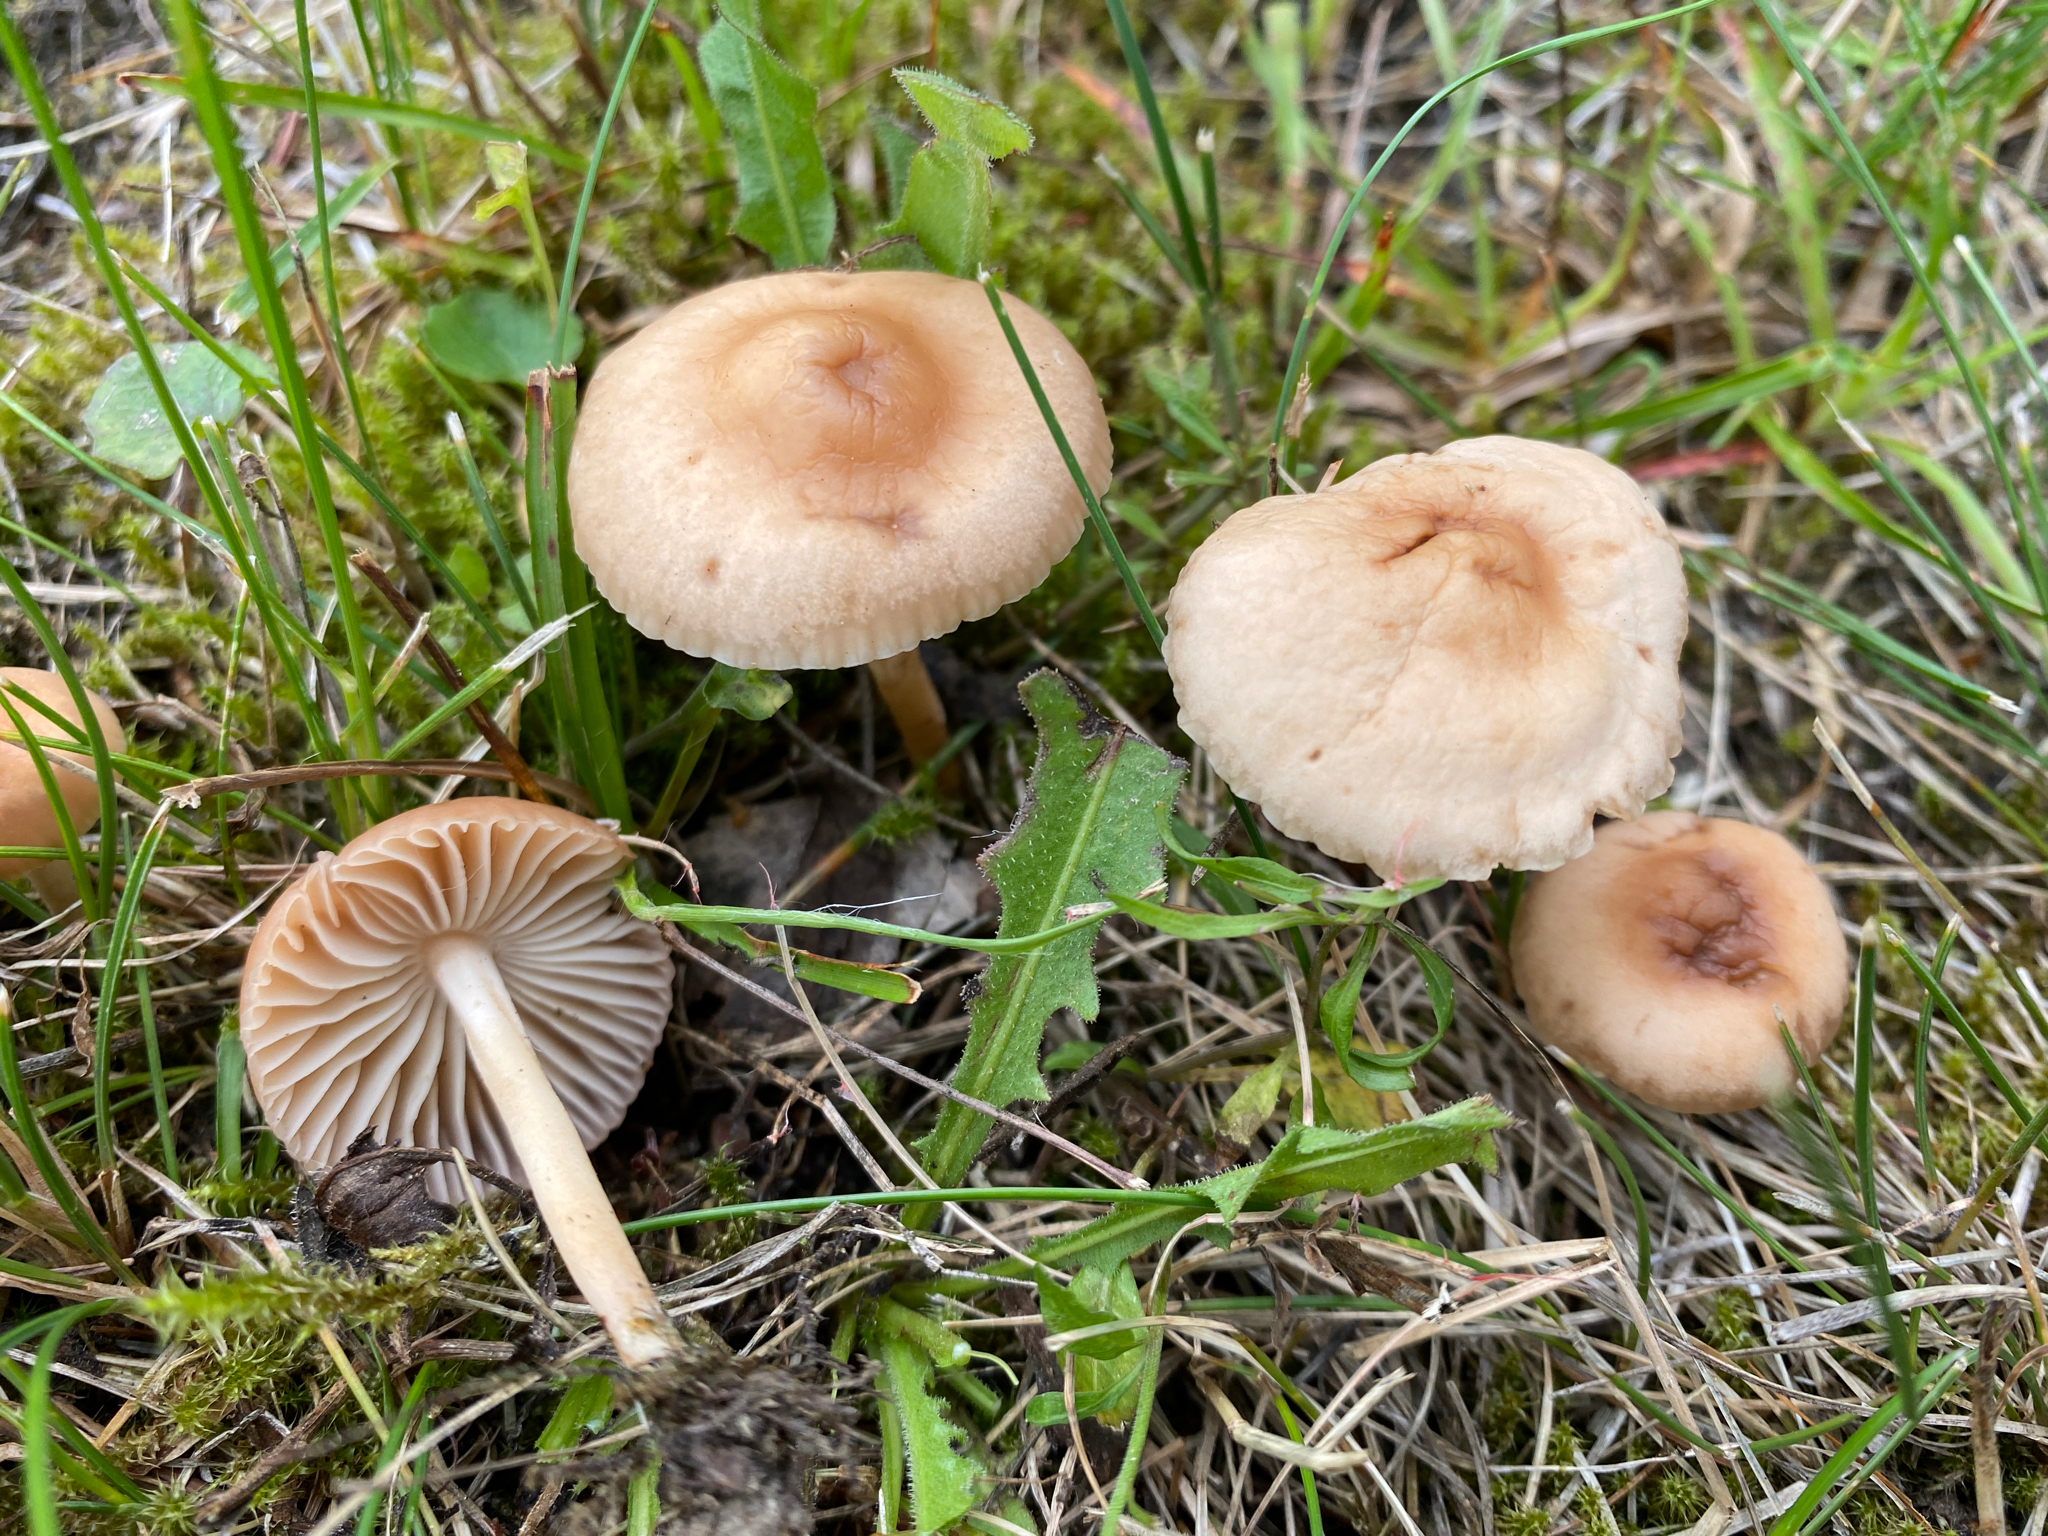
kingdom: Fungi
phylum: Basidiomycota
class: Agaricomycetes
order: Agaricales
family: Marasmiaceae
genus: Marasmius
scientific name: Marasmius oreades
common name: Fairy ring champignon
